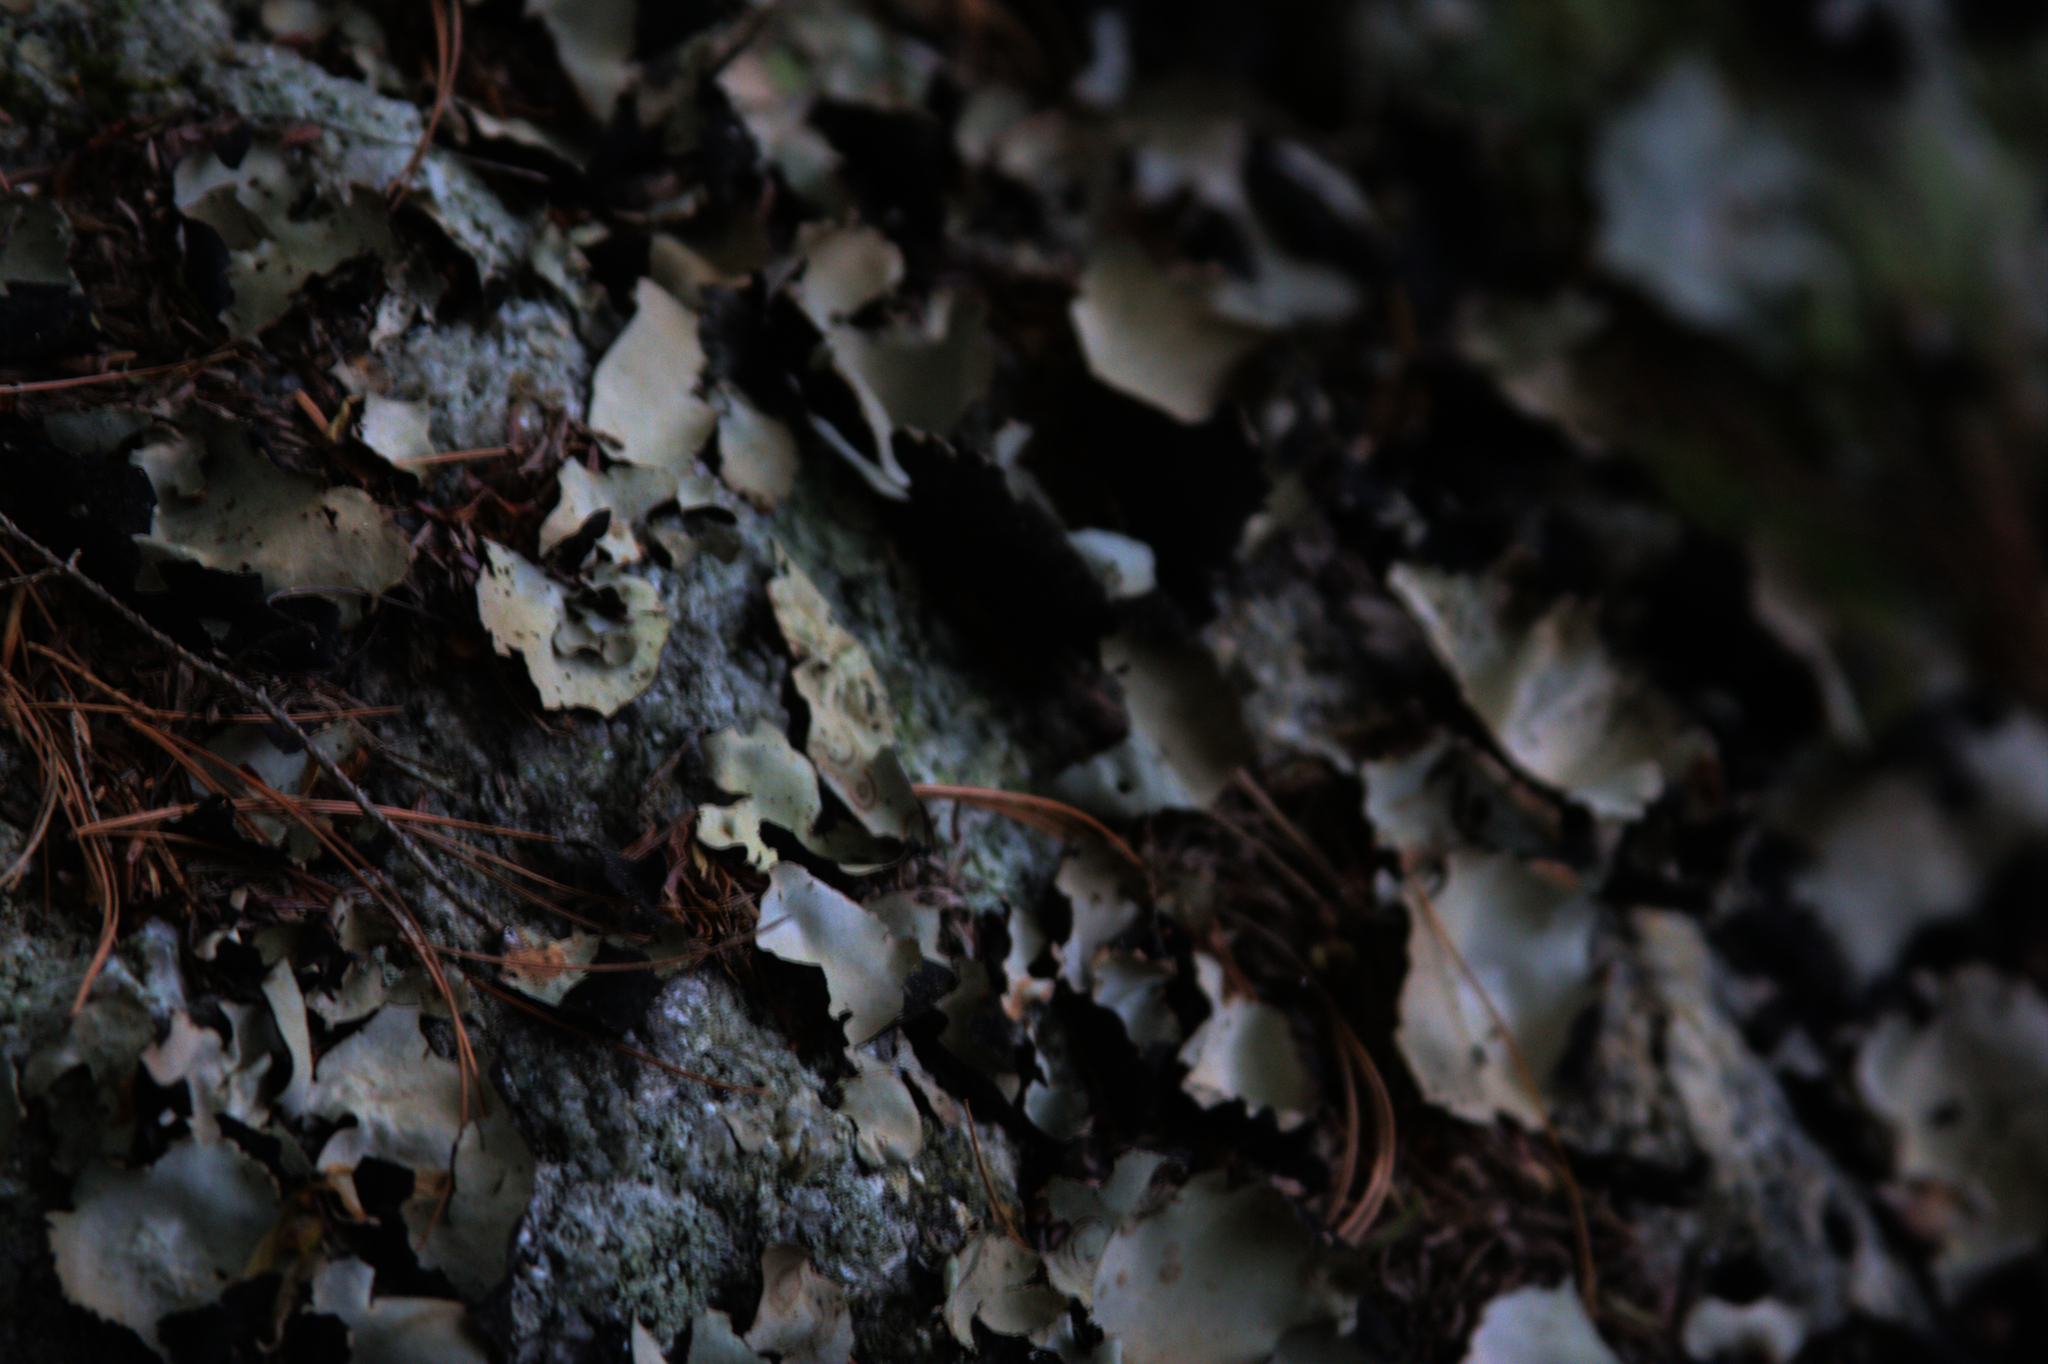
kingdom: Fungi
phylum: Ascomycota
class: Lecanoromycetes
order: Umbilicariales
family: Umbilicariaceae
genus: Umbilicaria
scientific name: Umbilicaria mammulata
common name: Smooth rock tripe
